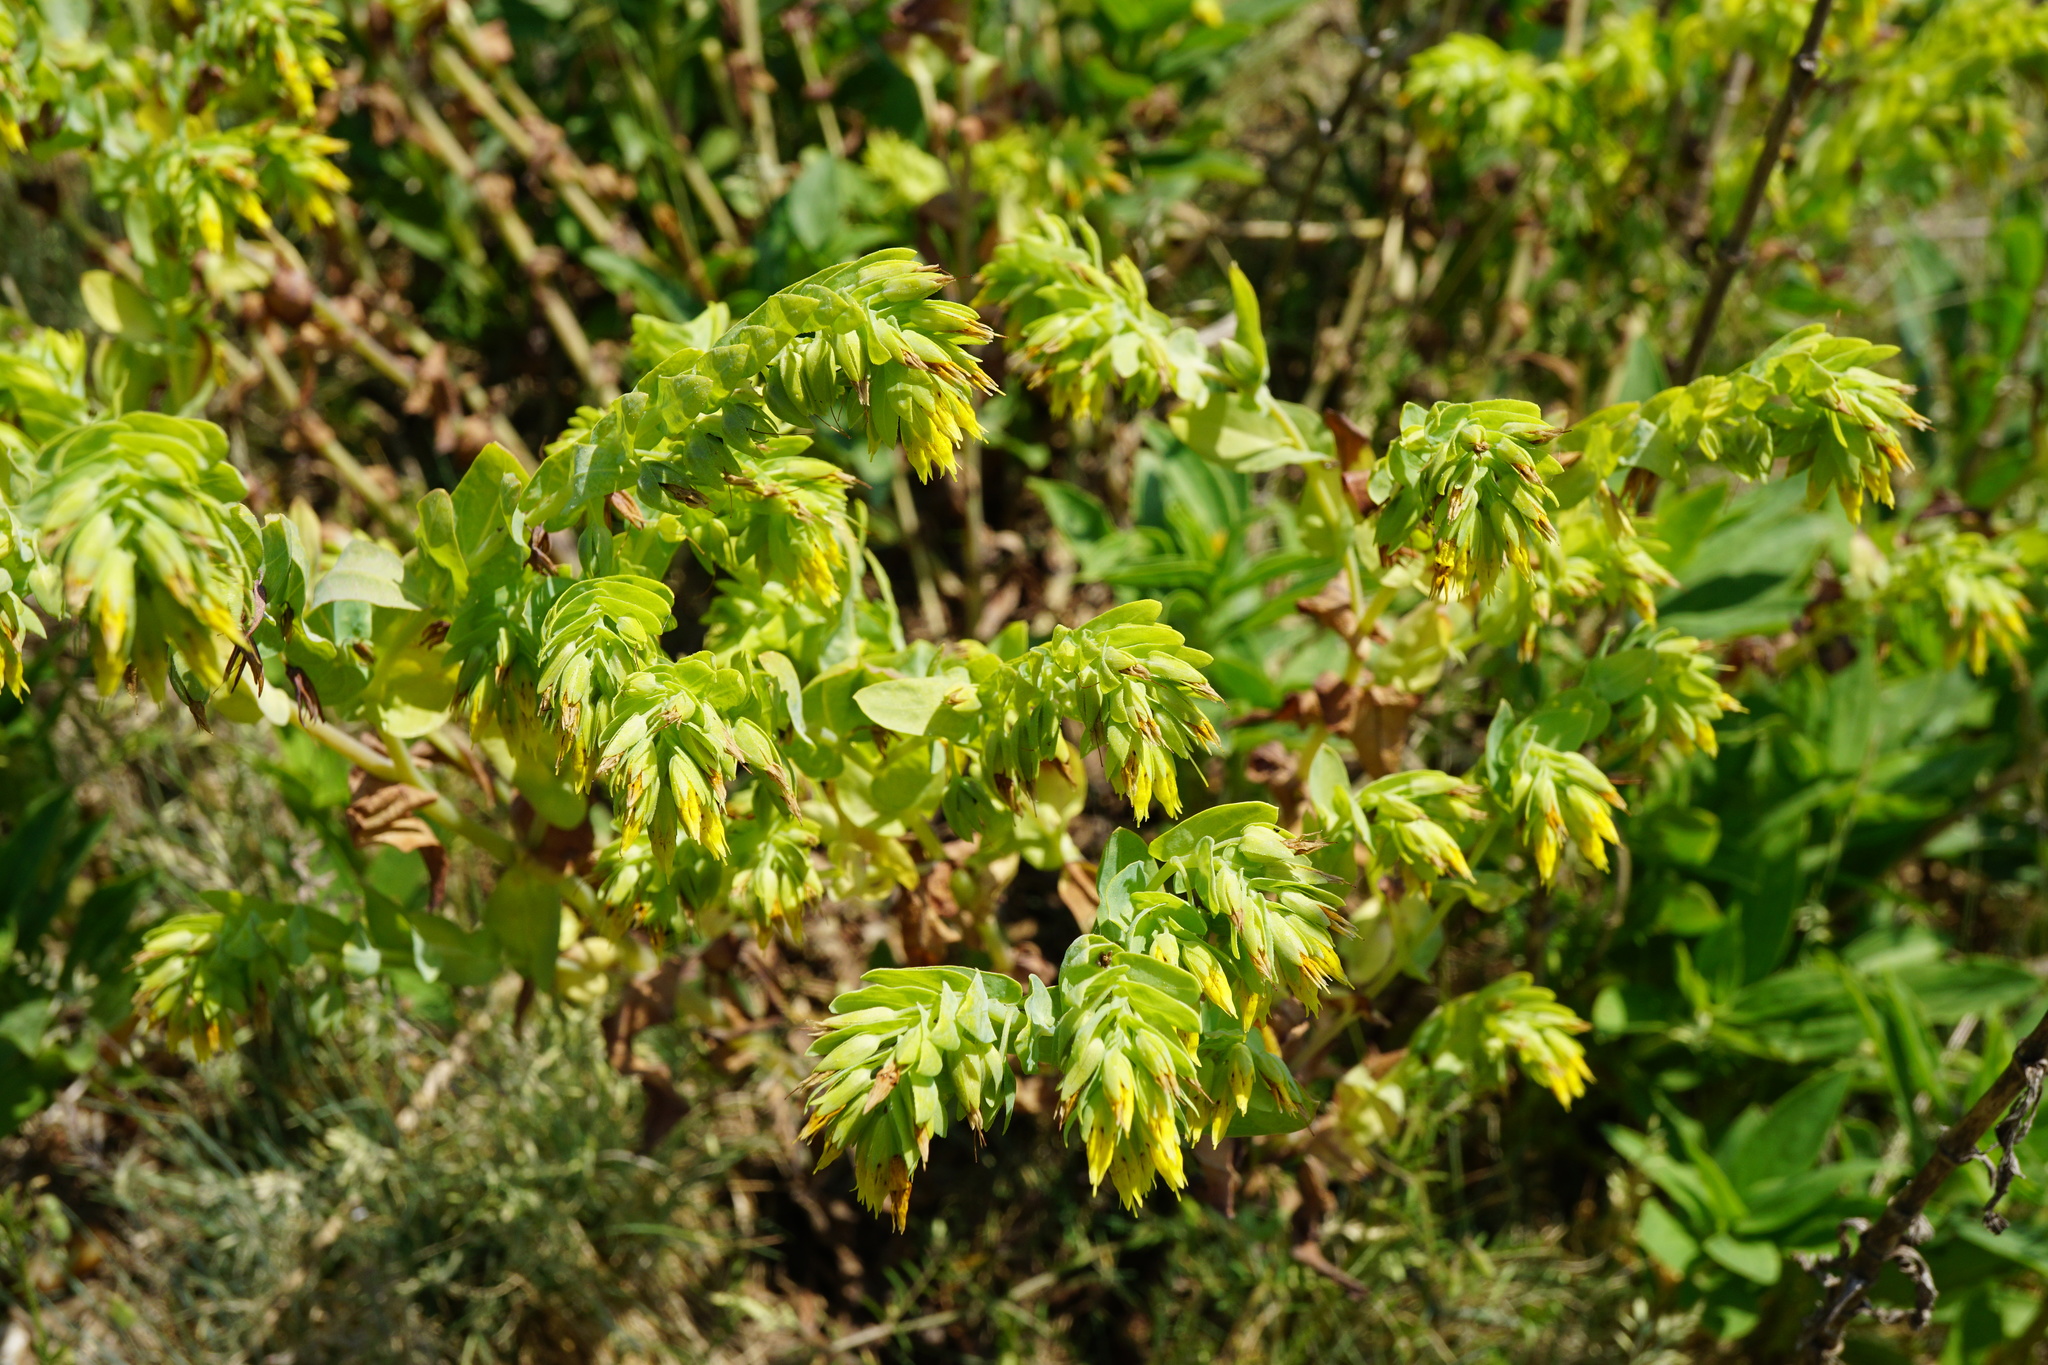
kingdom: Plantae
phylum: Tracheophyta
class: Magnoliopsida
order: Boraginales
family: Boraginaceae
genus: Cerinthe
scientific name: Cerinthe minor
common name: Lesser honeywort
